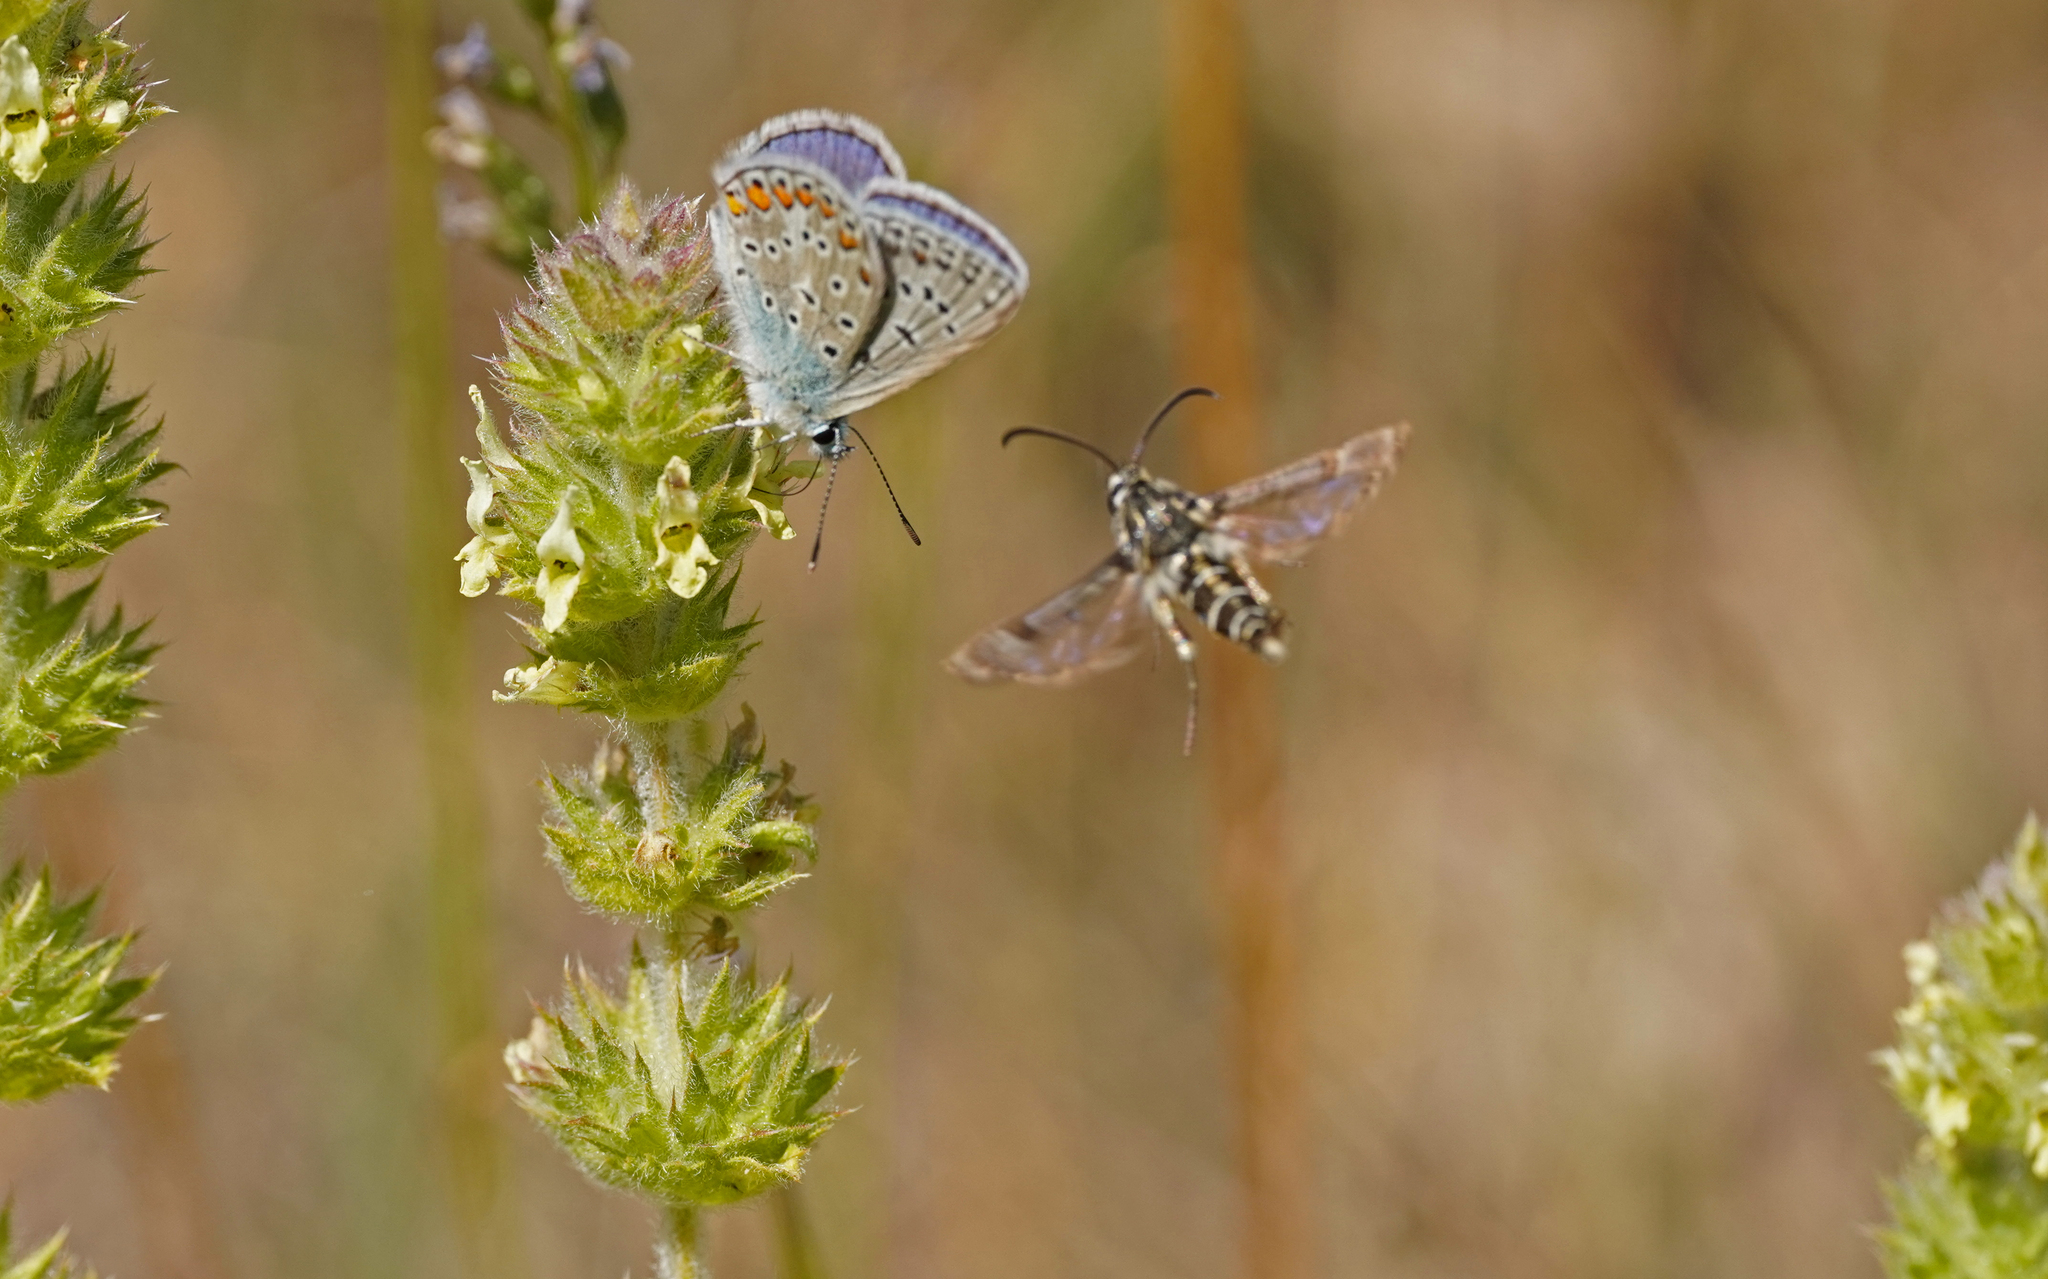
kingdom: Animalia
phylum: Arthropoda
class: Insecta
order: Lepidoptera
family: Sesiidae
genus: Pyropteron
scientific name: Pyropteron affinis
